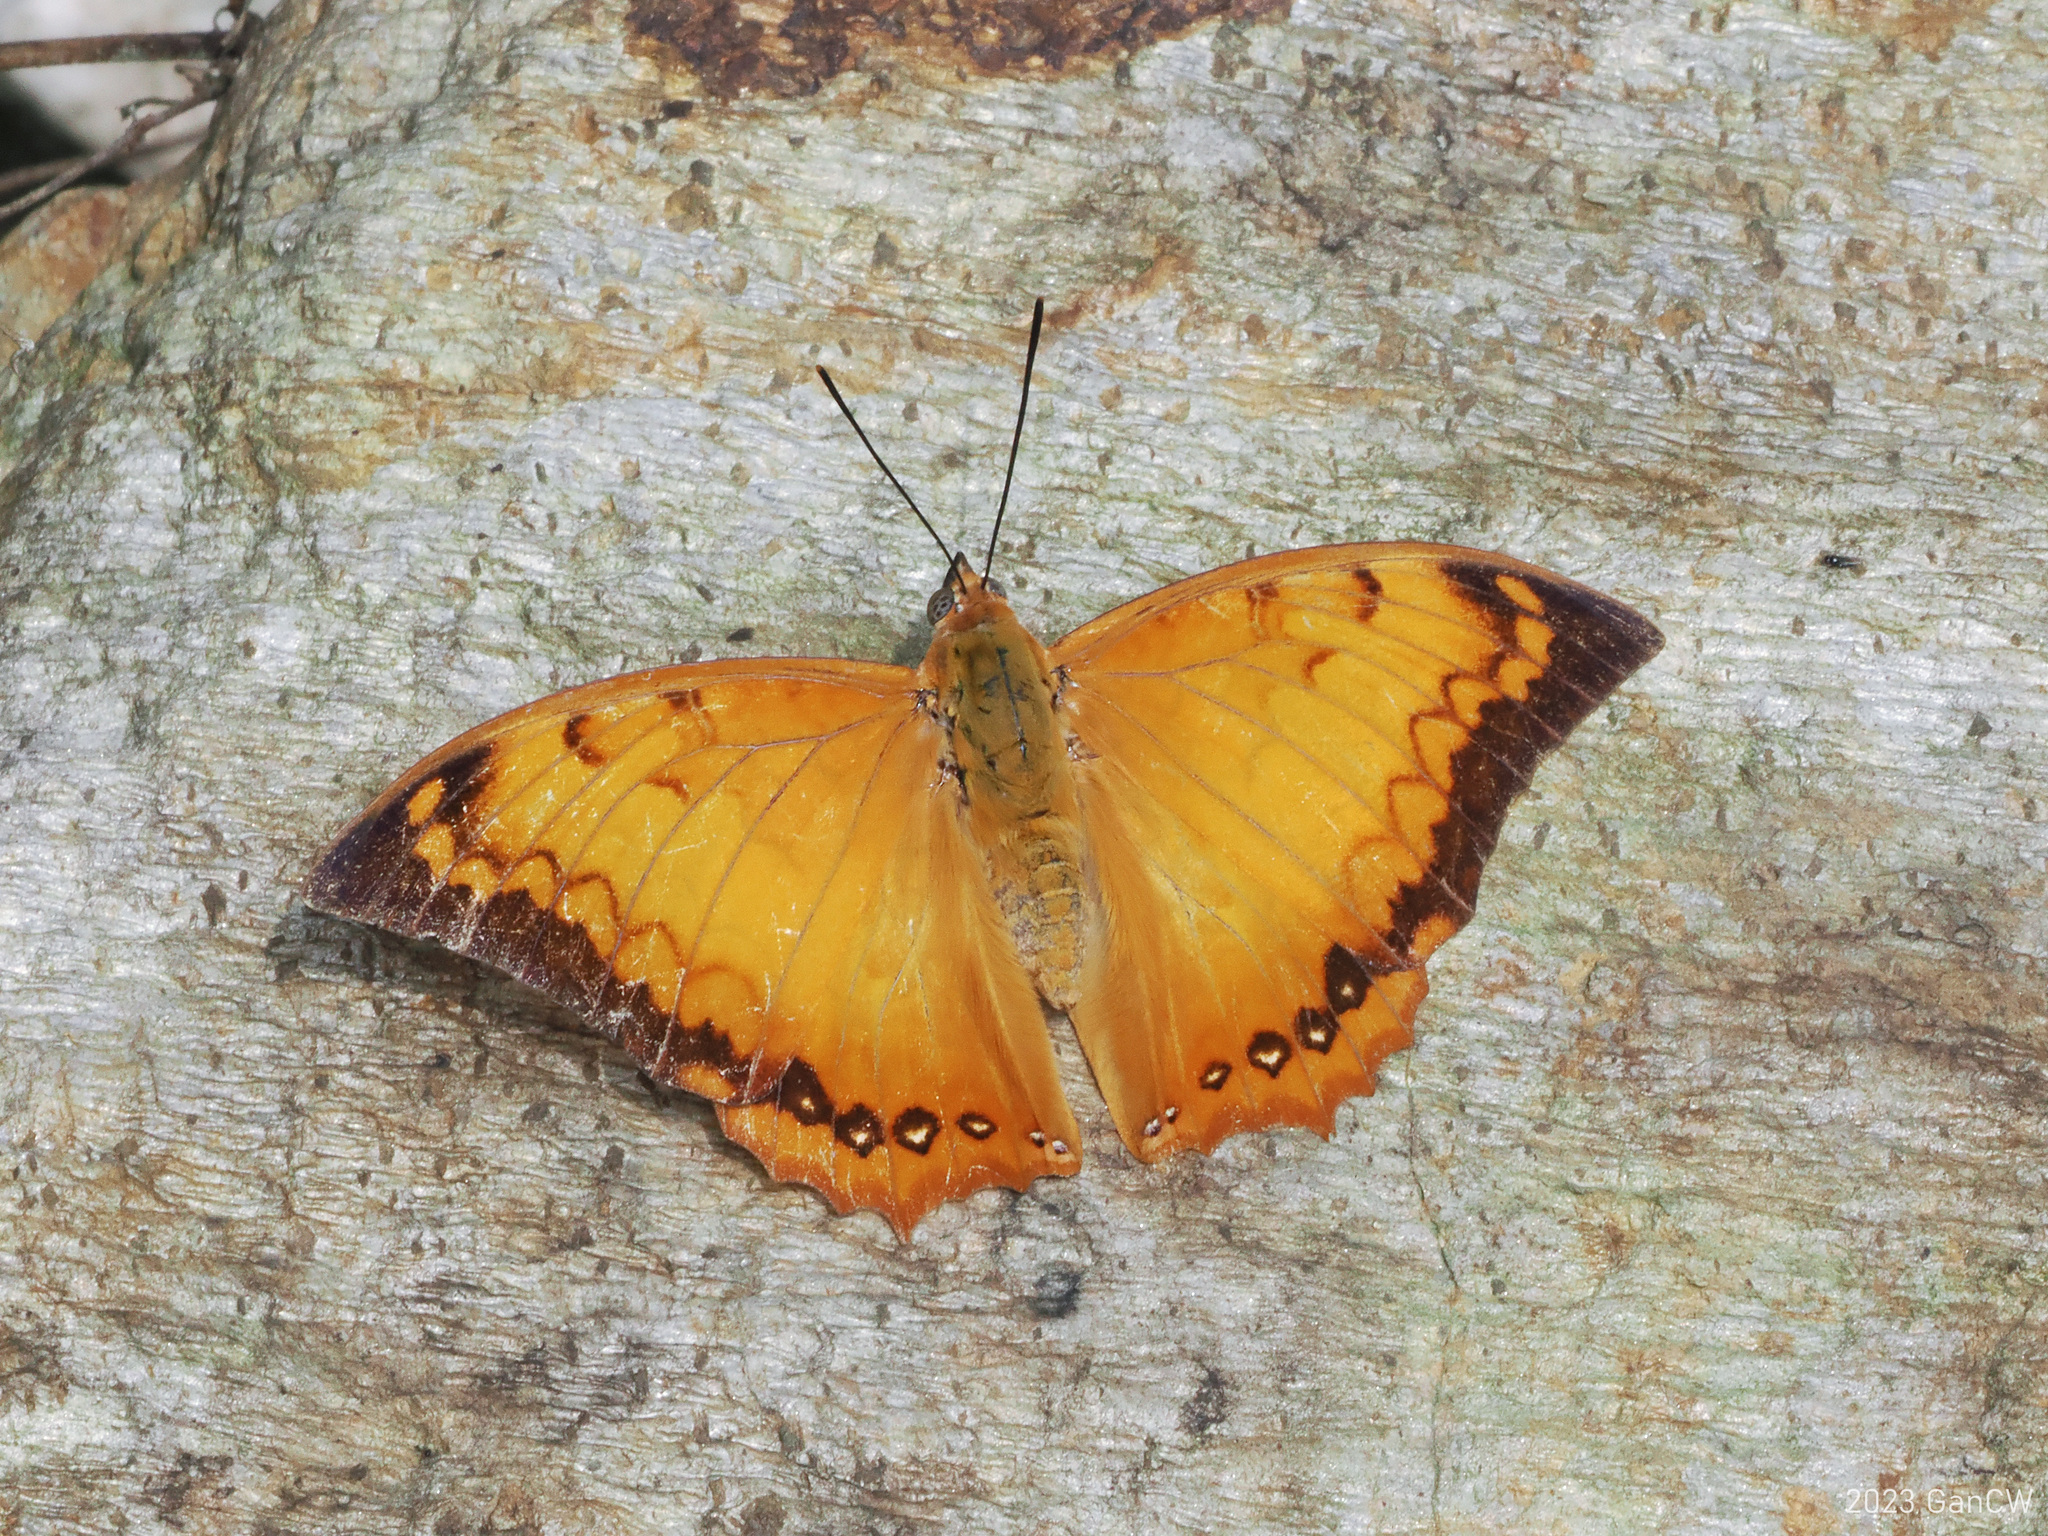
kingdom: Animalia
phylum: Arthropoda
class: Insecta
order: Lepidoptera
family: Nymphalidae
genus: Charaxes
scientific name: Charaxes kahruba
